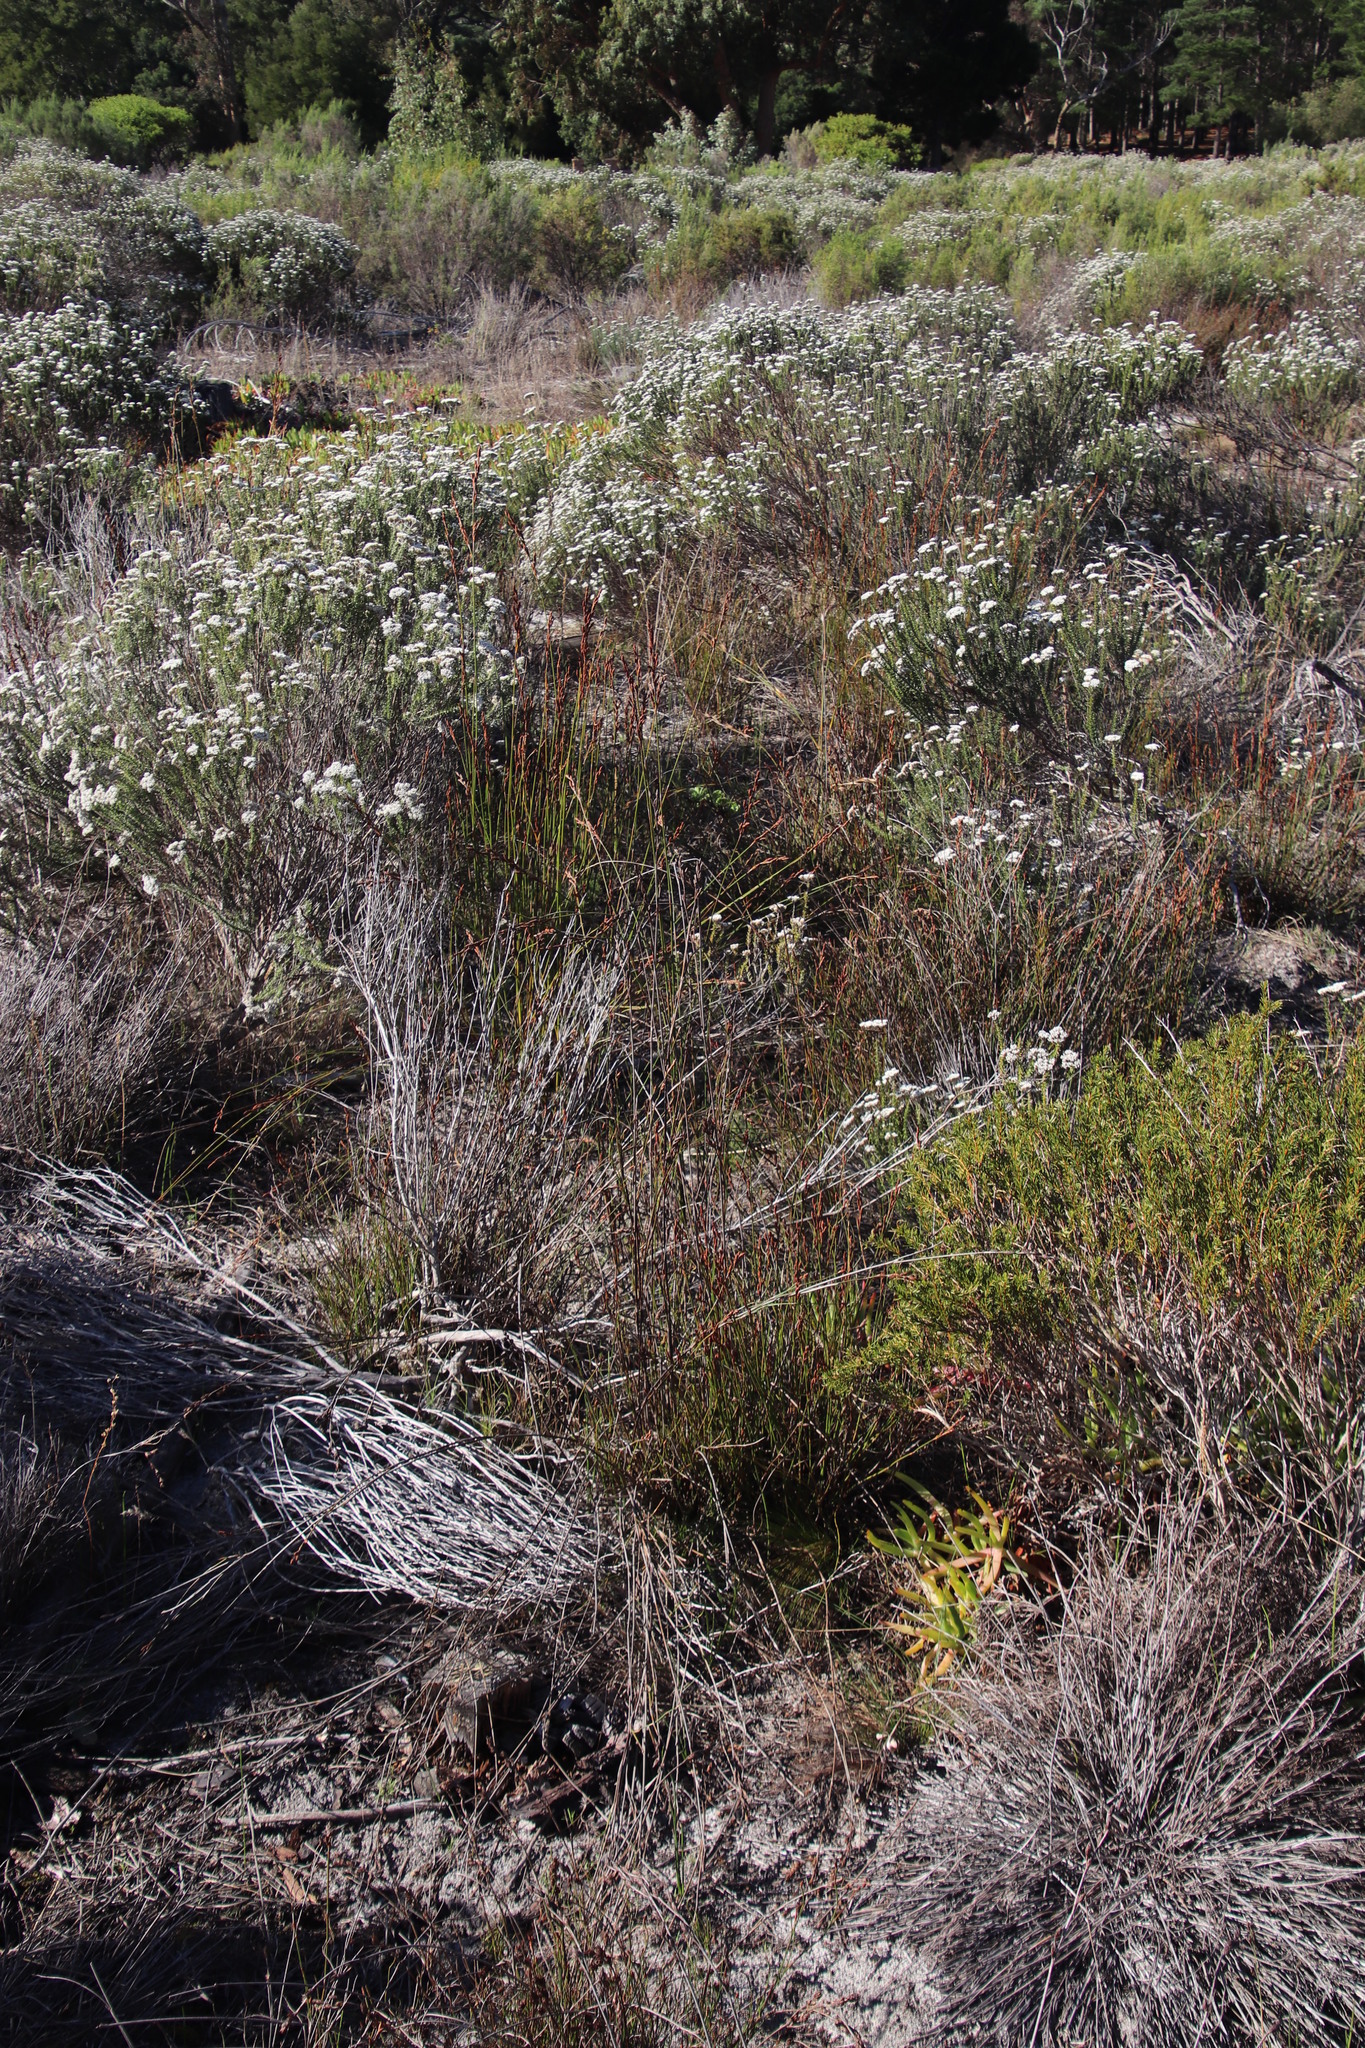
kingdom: Plantae
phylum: Tracheophyta
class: Liliopsida
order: Poales
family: Restionaceae
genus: Restio
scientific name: Restio bifurcus
